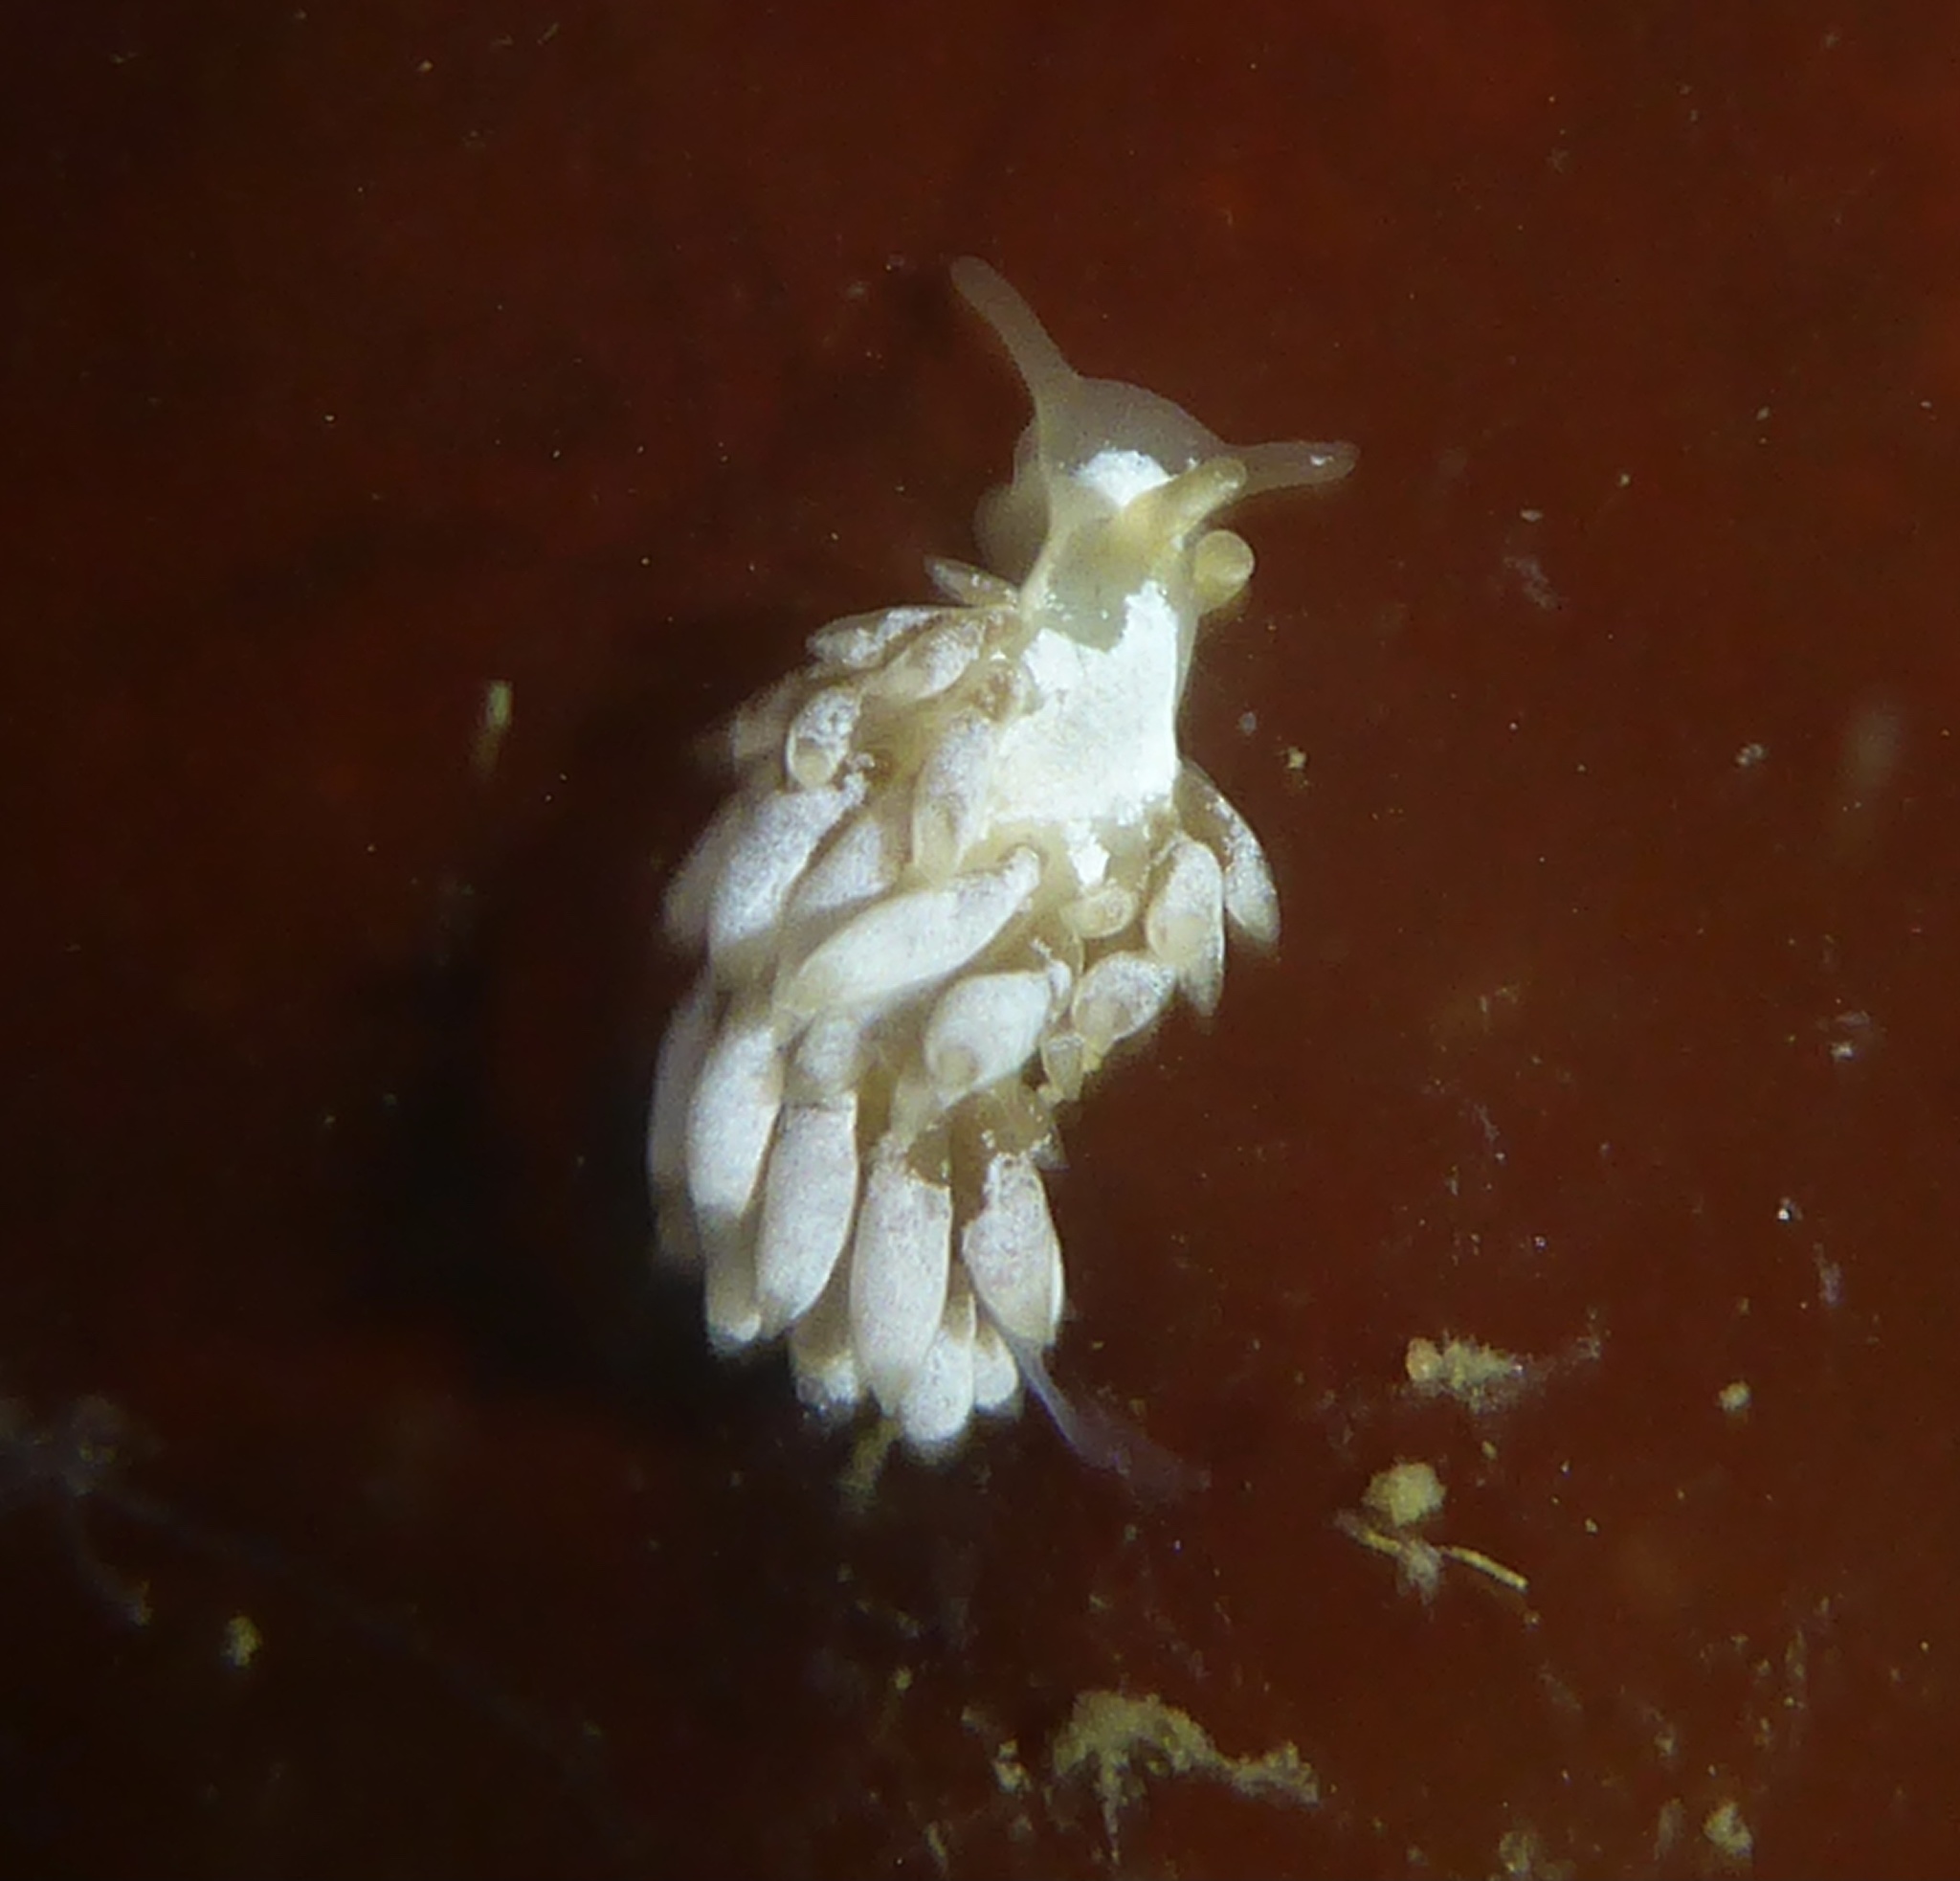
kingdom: Animalia
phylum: Mollusca
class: Gastropoda
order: Nudibranchia
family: Trinchesiidae
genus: Trinchesia
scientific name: Trinchesia albocrusta
